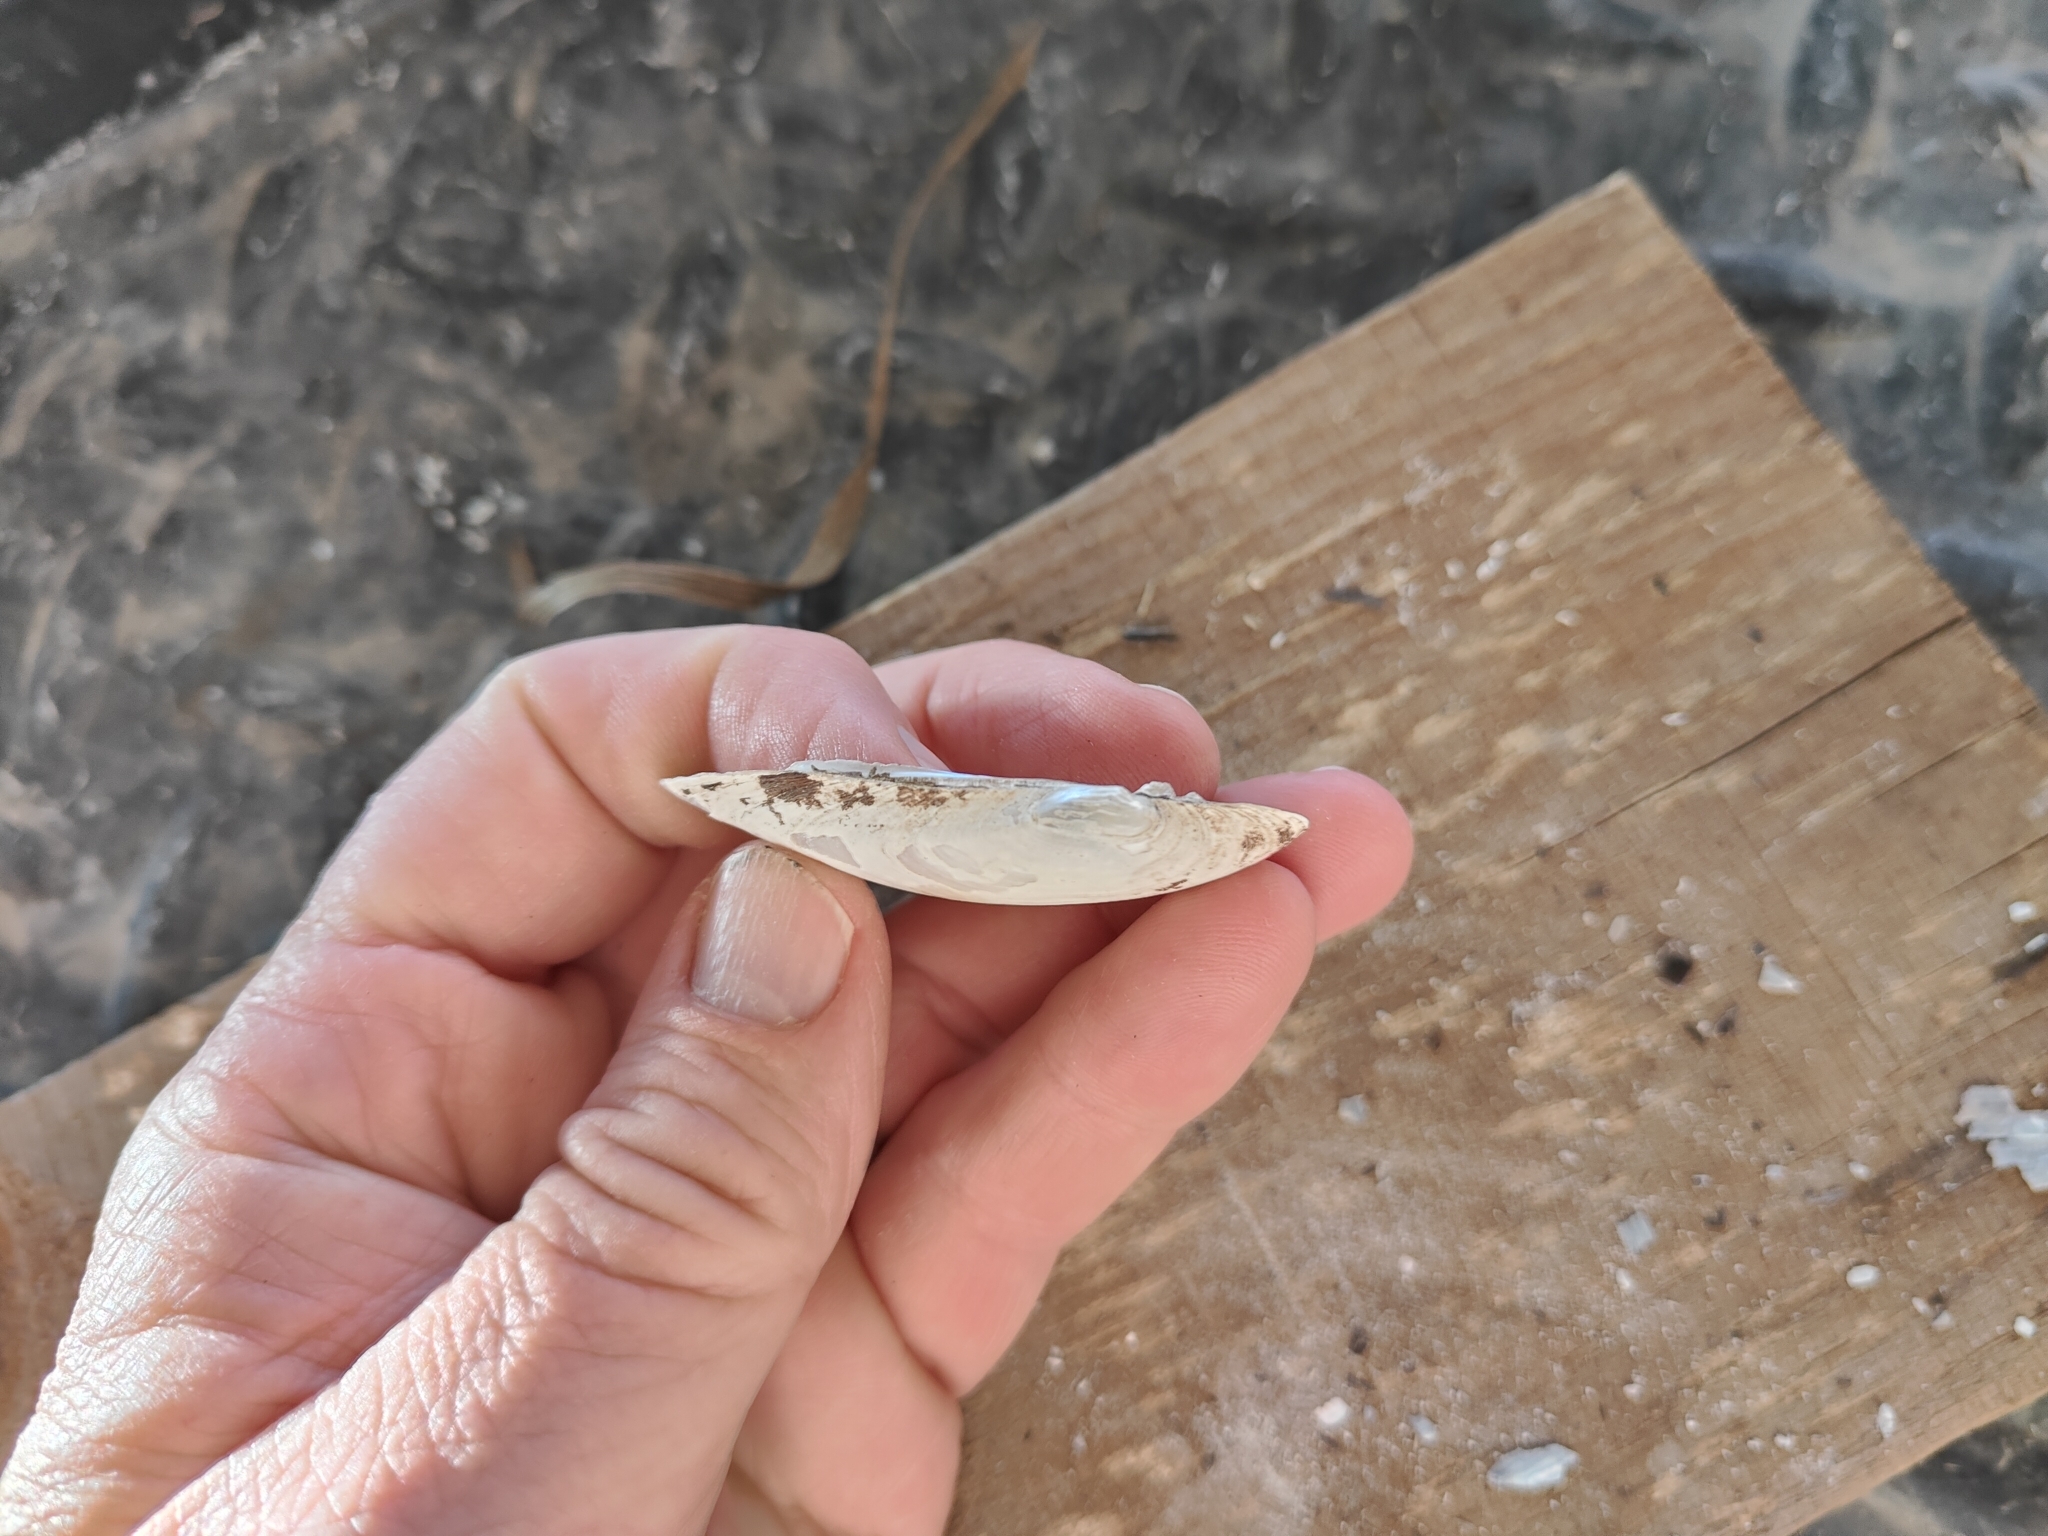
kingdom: Animalia
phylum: Mollusca
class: Bivalvia
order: Unionida
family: Unionidae
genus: Lampsilis
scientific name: Lampsilis teres
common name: Yellow sandshell
